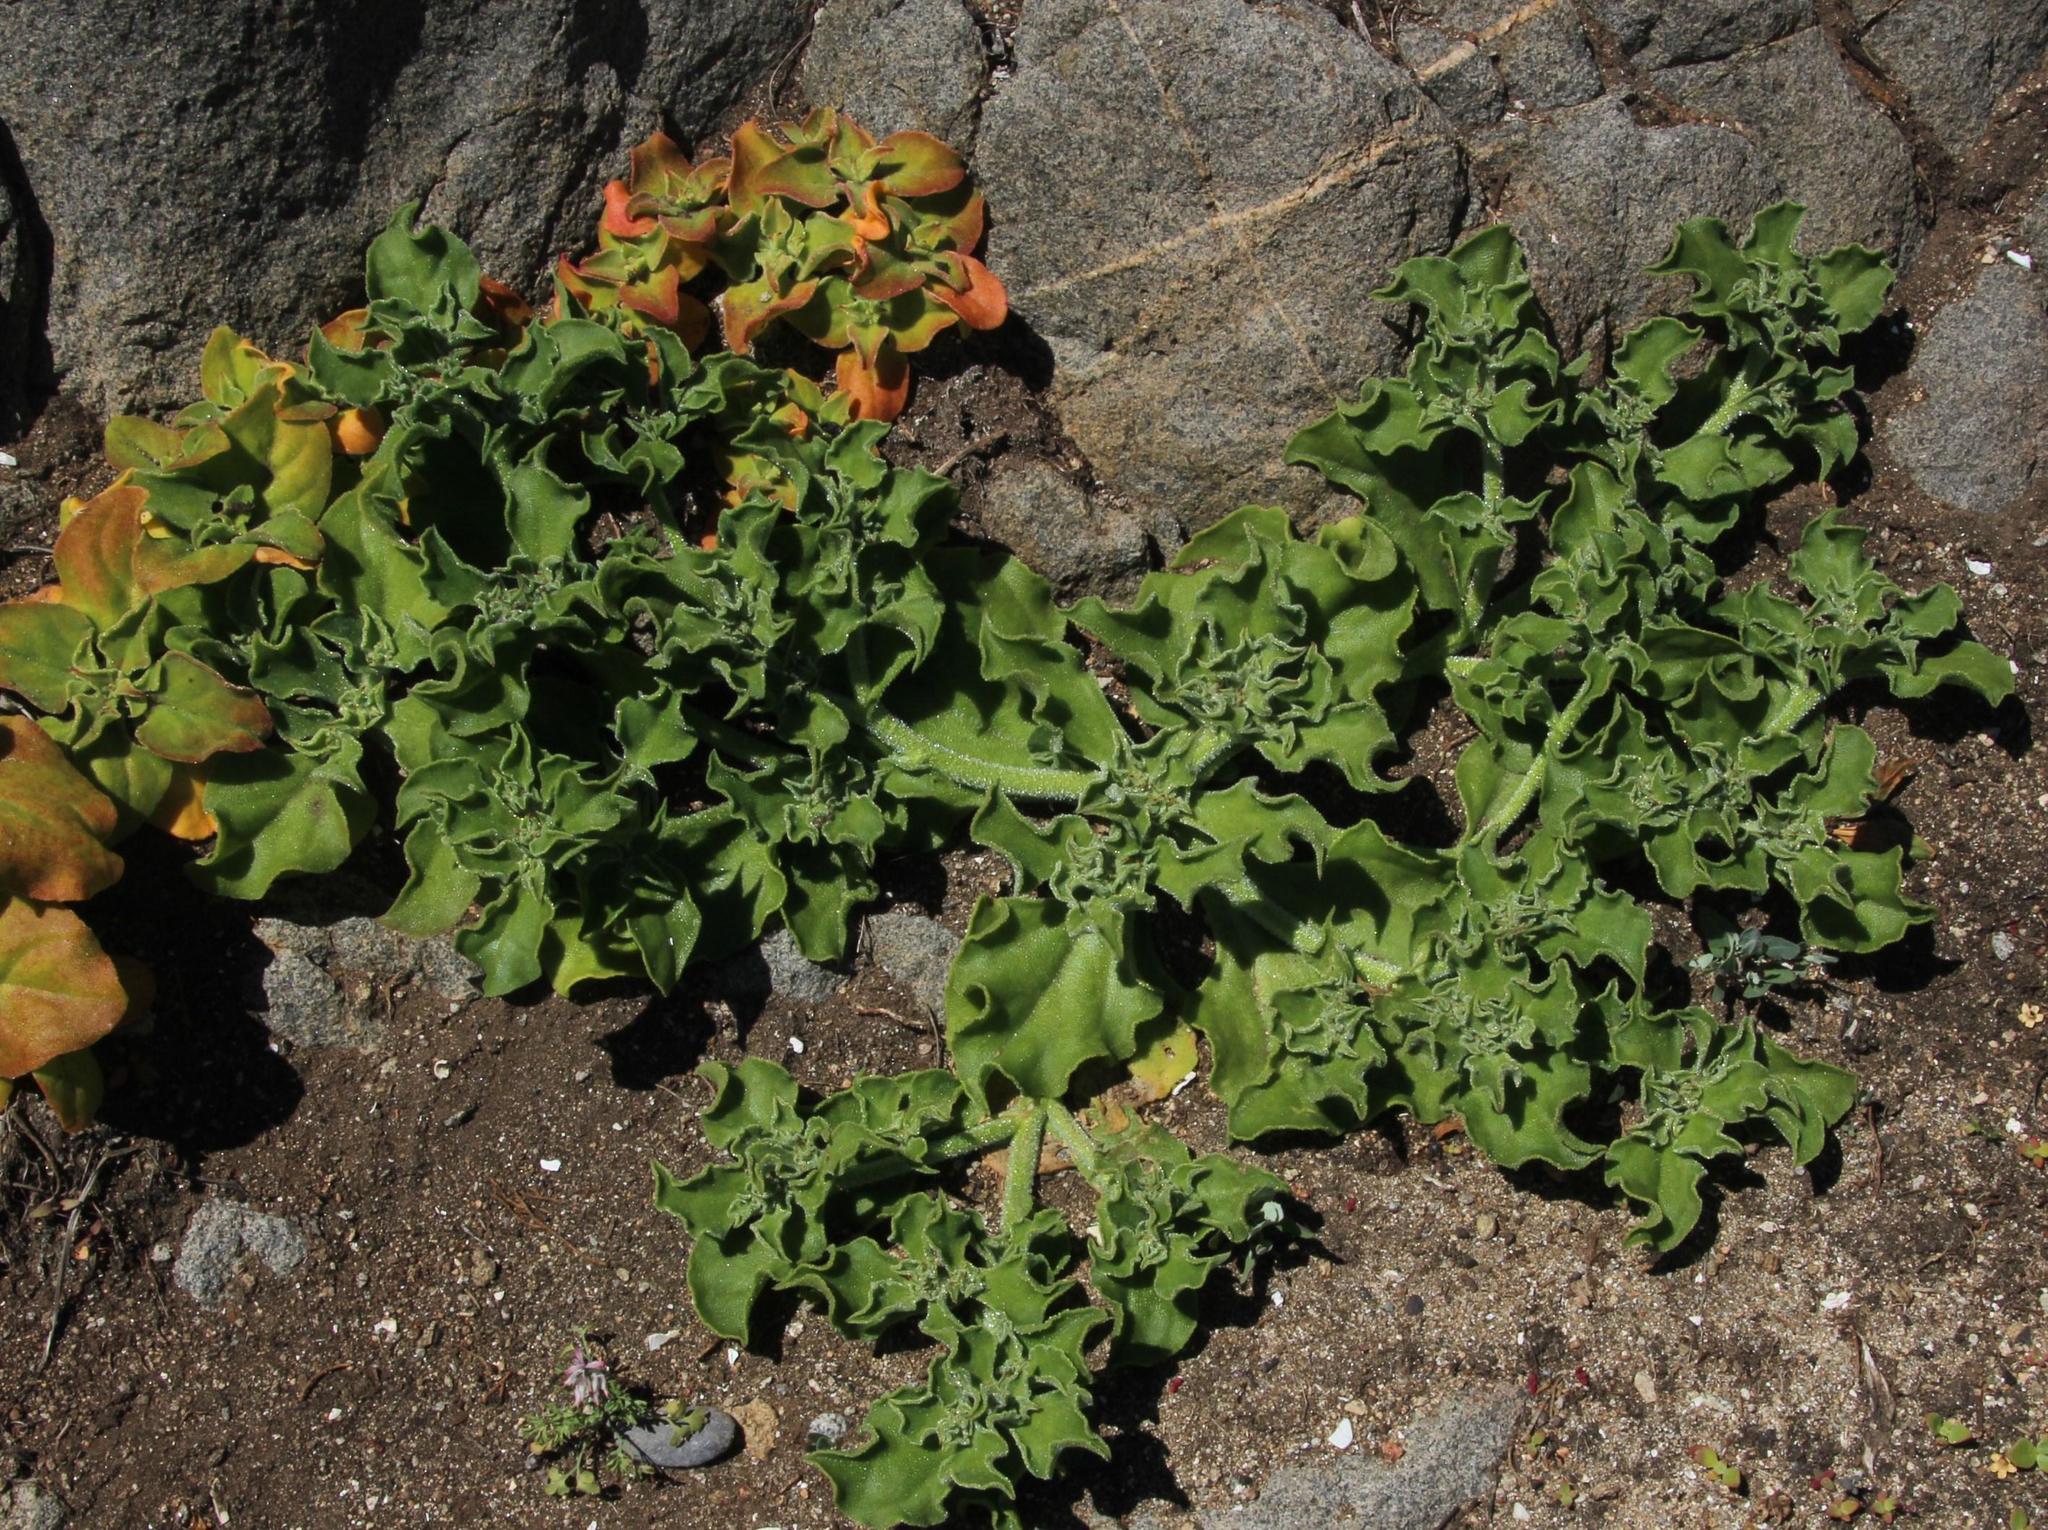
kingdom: Plantae
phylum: Tracheophyta
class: Magnoliopsida
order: Caryophyllales
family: Aizoaceae
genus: Mesembryanthemum
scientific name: Mesembryanthemum crystallinum
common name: Common iceplant
